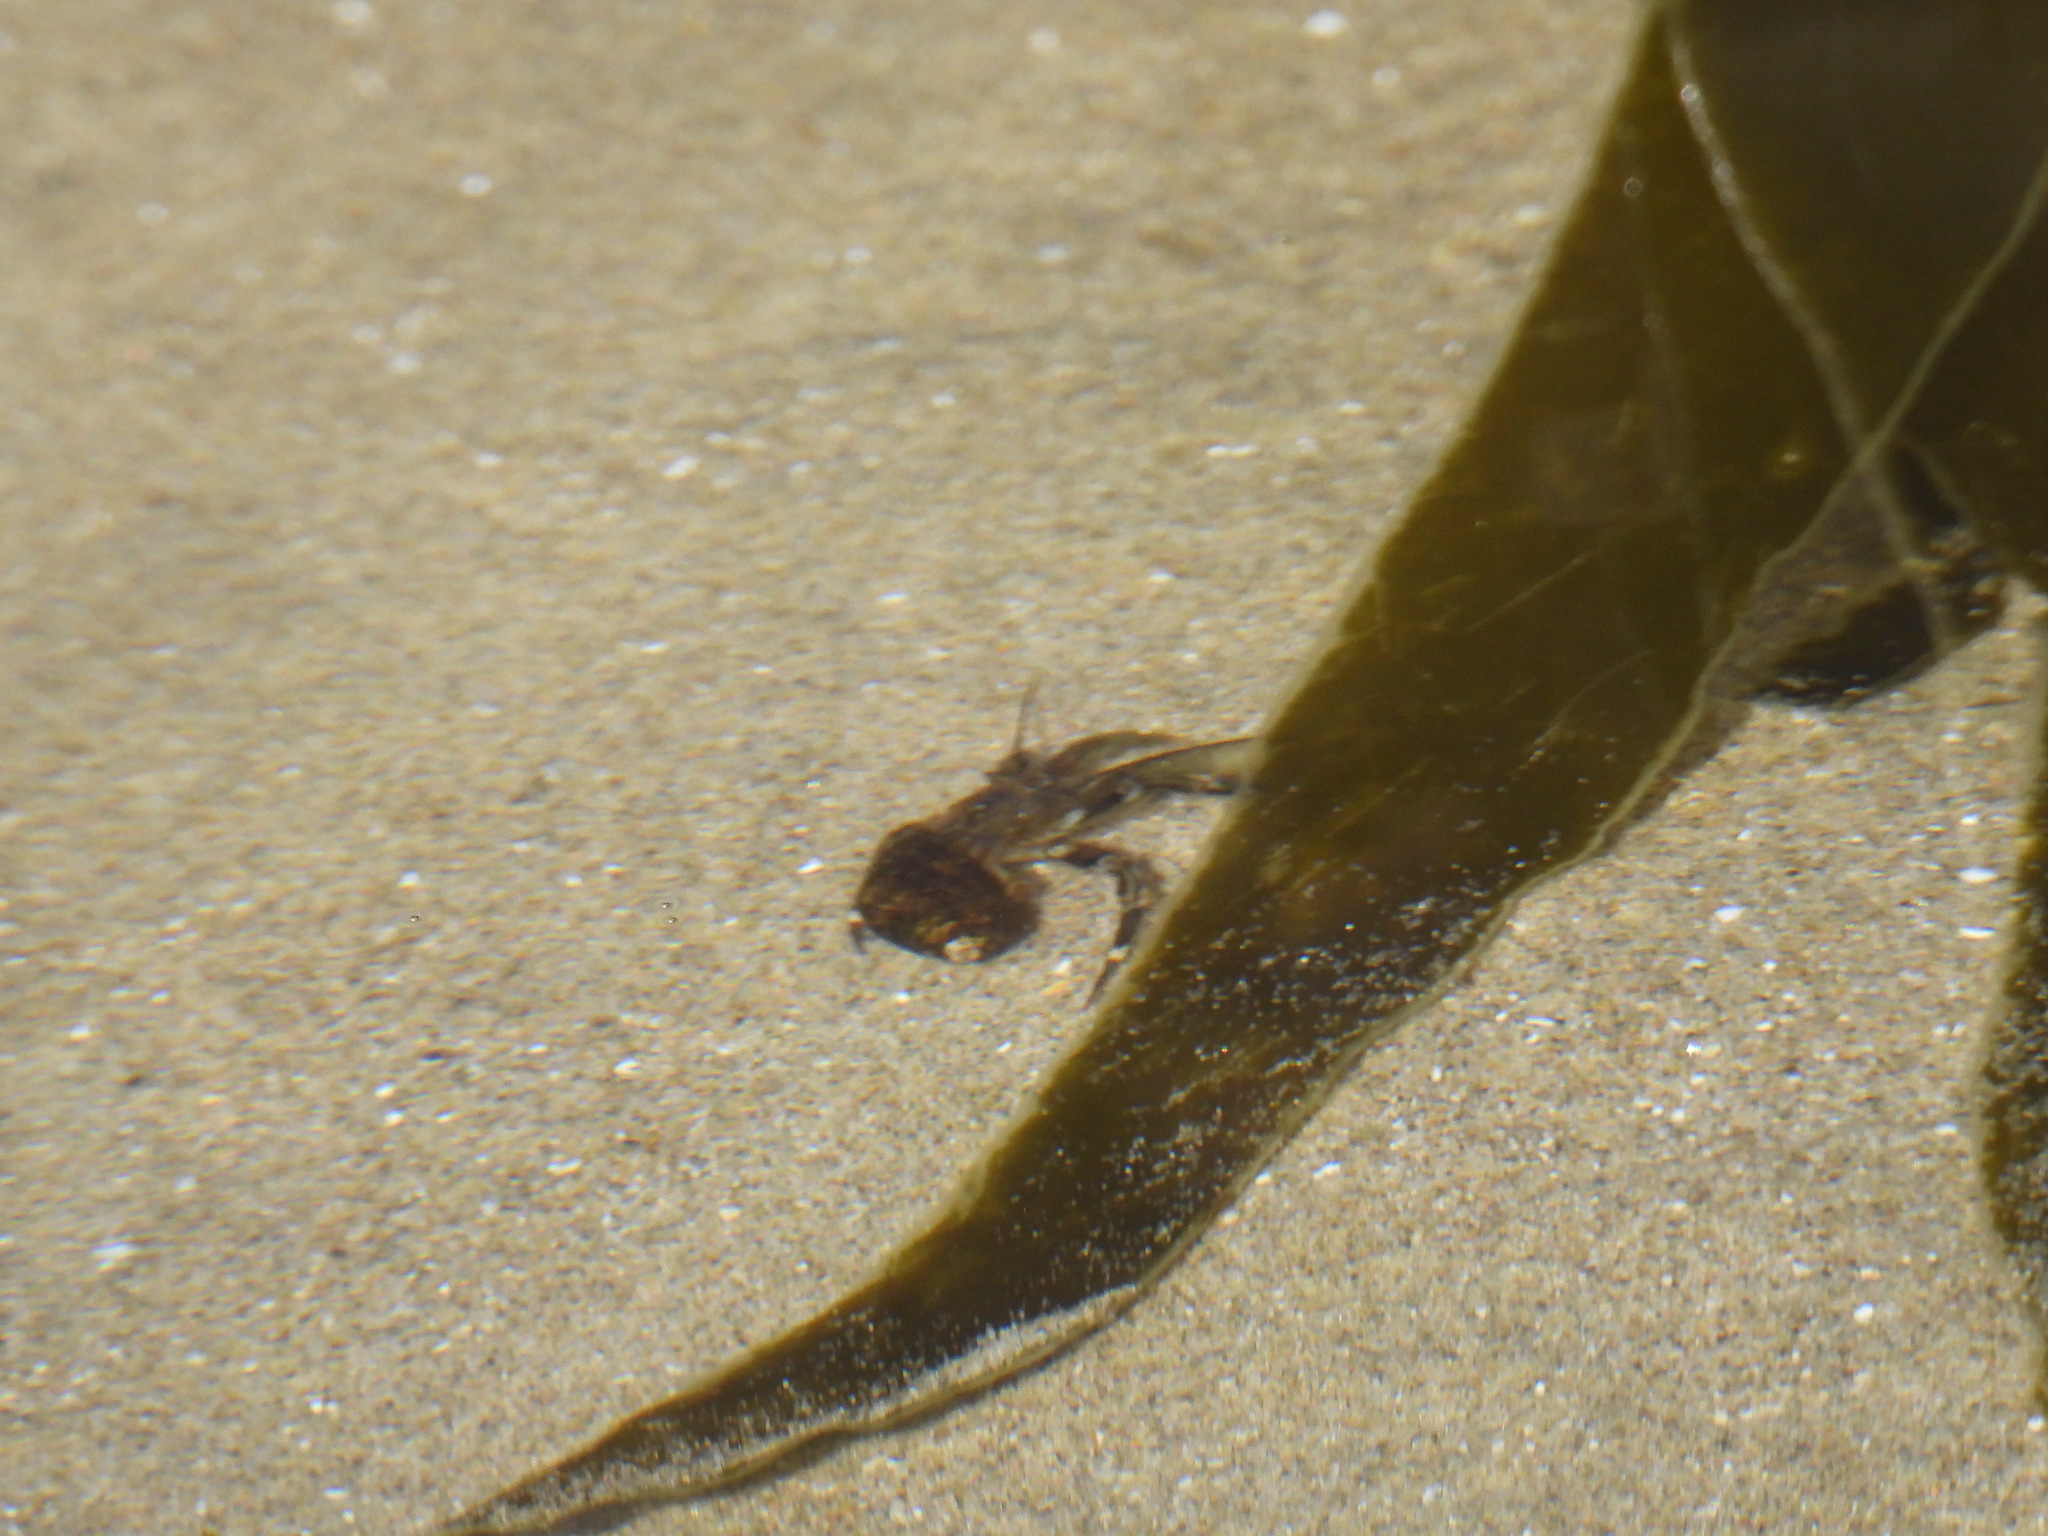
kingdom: Animalia
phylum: Arthropoda
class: Malacostraca
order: Decapoda
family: Paguridae
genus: Pagurus
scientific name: Pagurus hirsutiusculus
